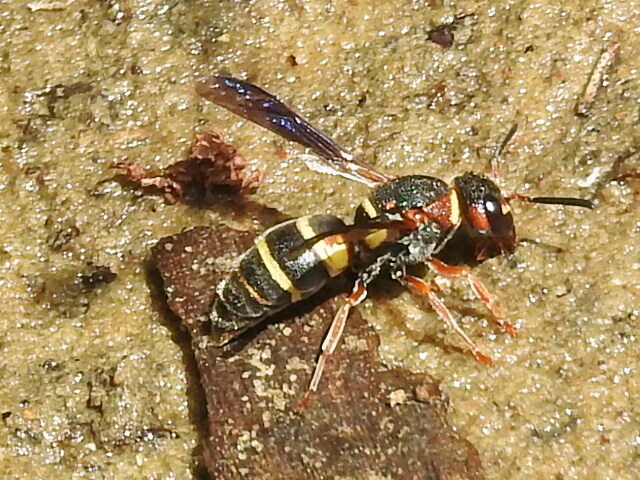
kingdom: Animalia
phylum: Arthropoda
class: Insecta
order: Hymenoptera
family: Eumenidae
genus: Euodynerus
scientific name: Euodynerus annulatus
